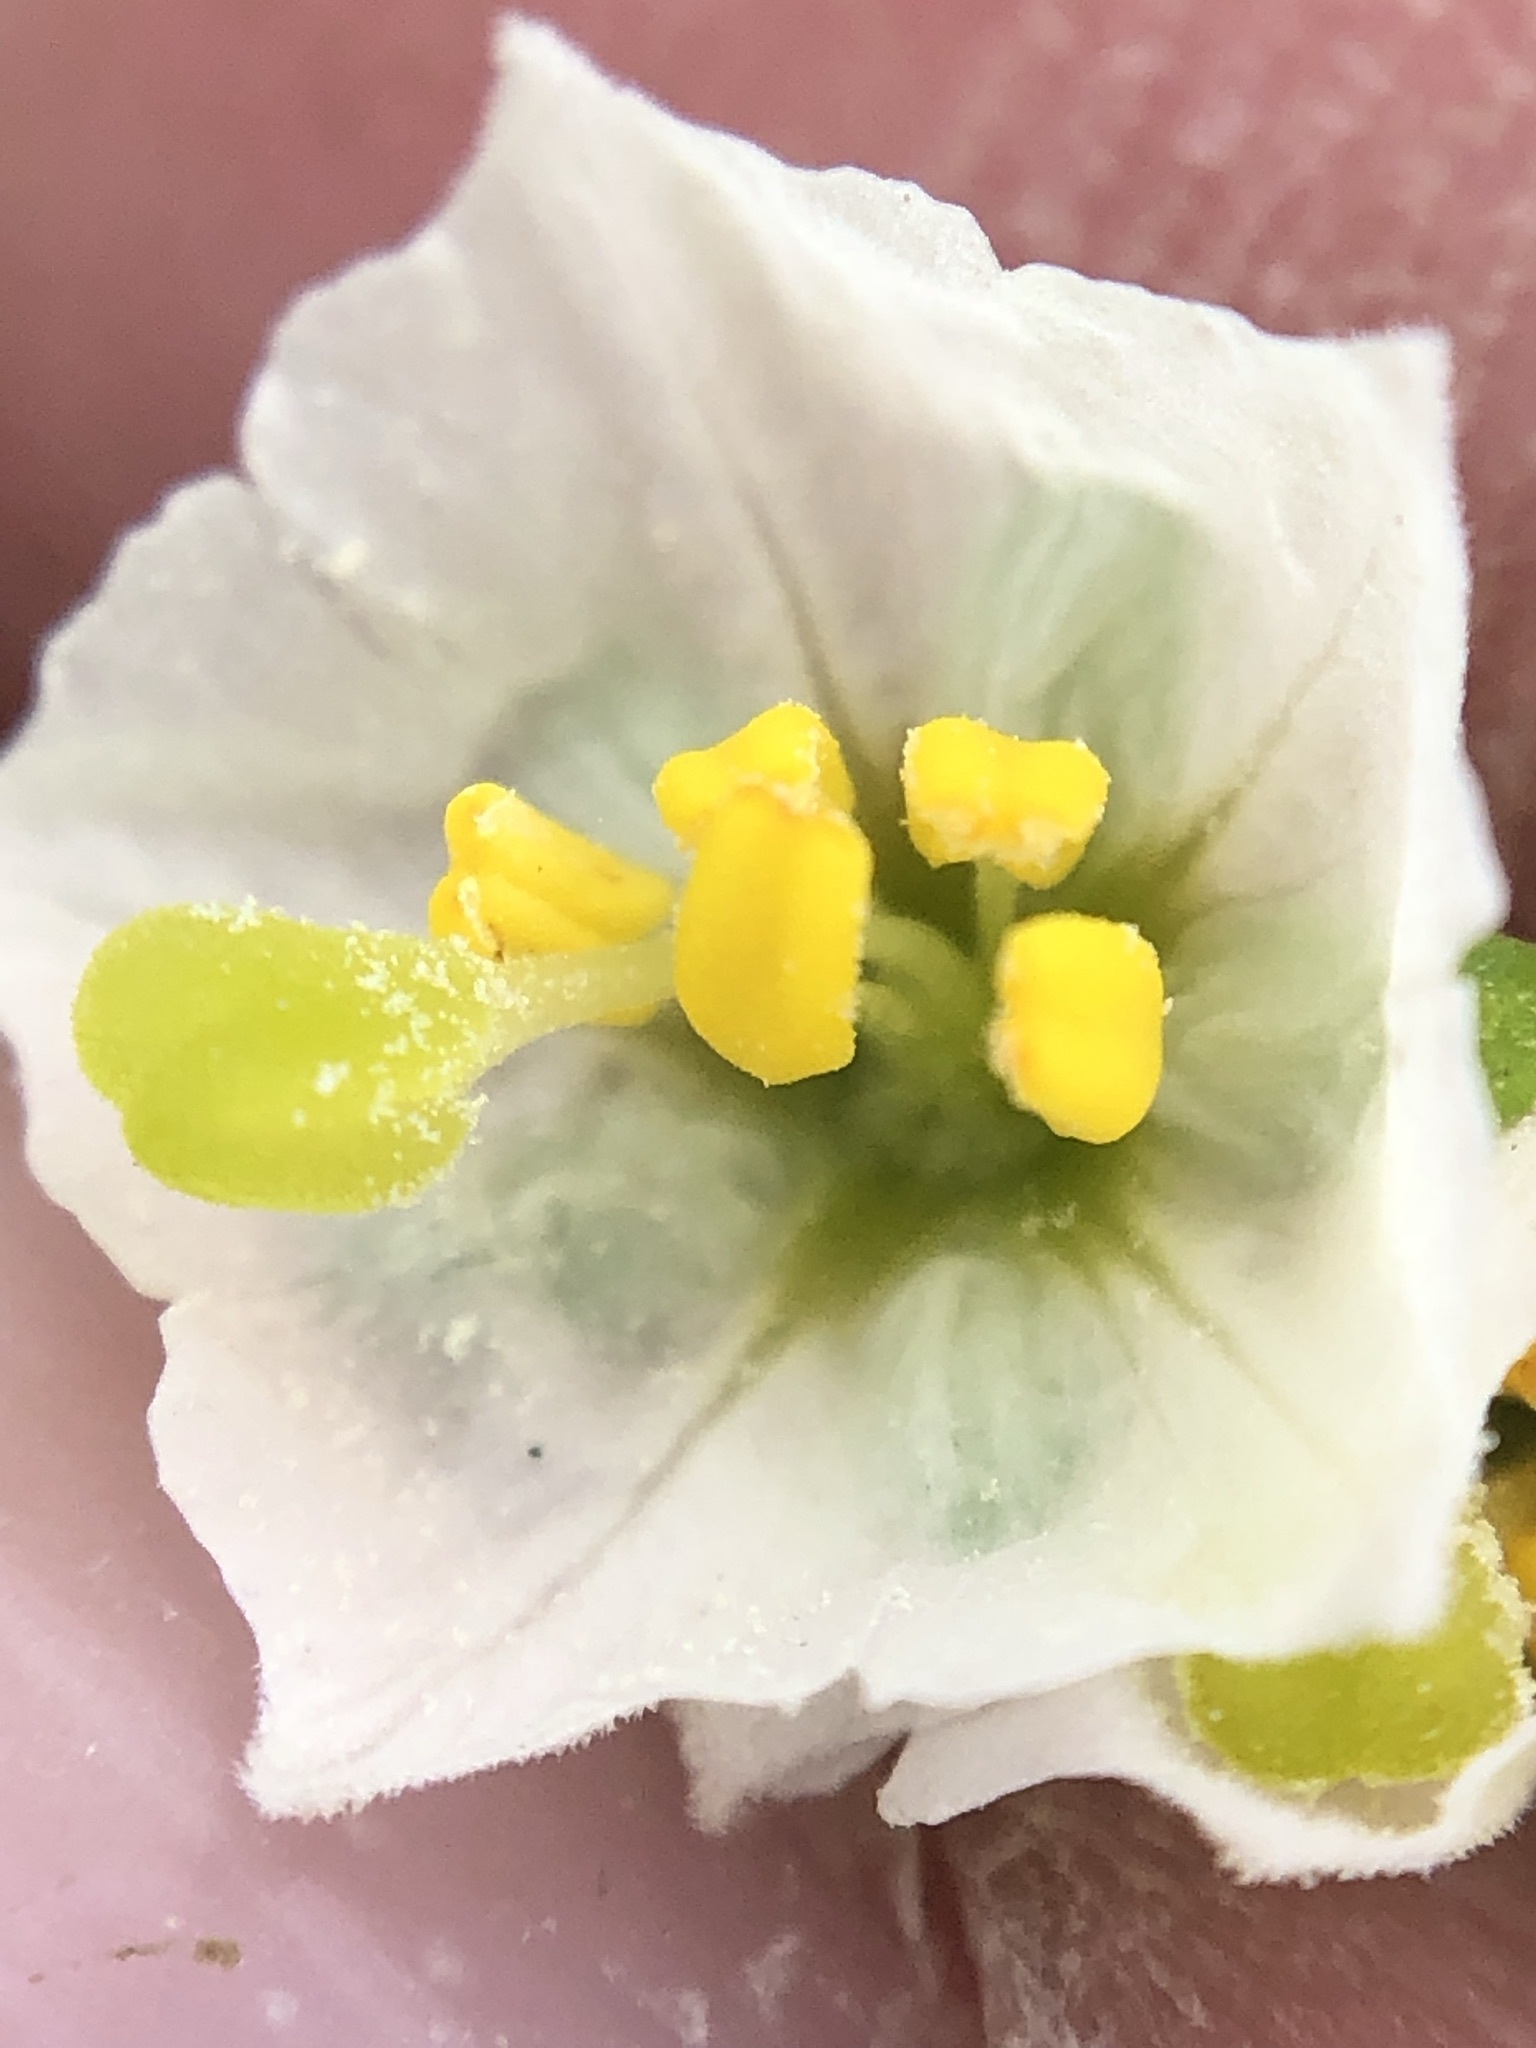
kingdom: Plantae
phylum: Tracheophyta
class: Magnoliopsida
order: Solanales
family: Solanaceae
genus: Solanum
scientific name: Solanum montanum
